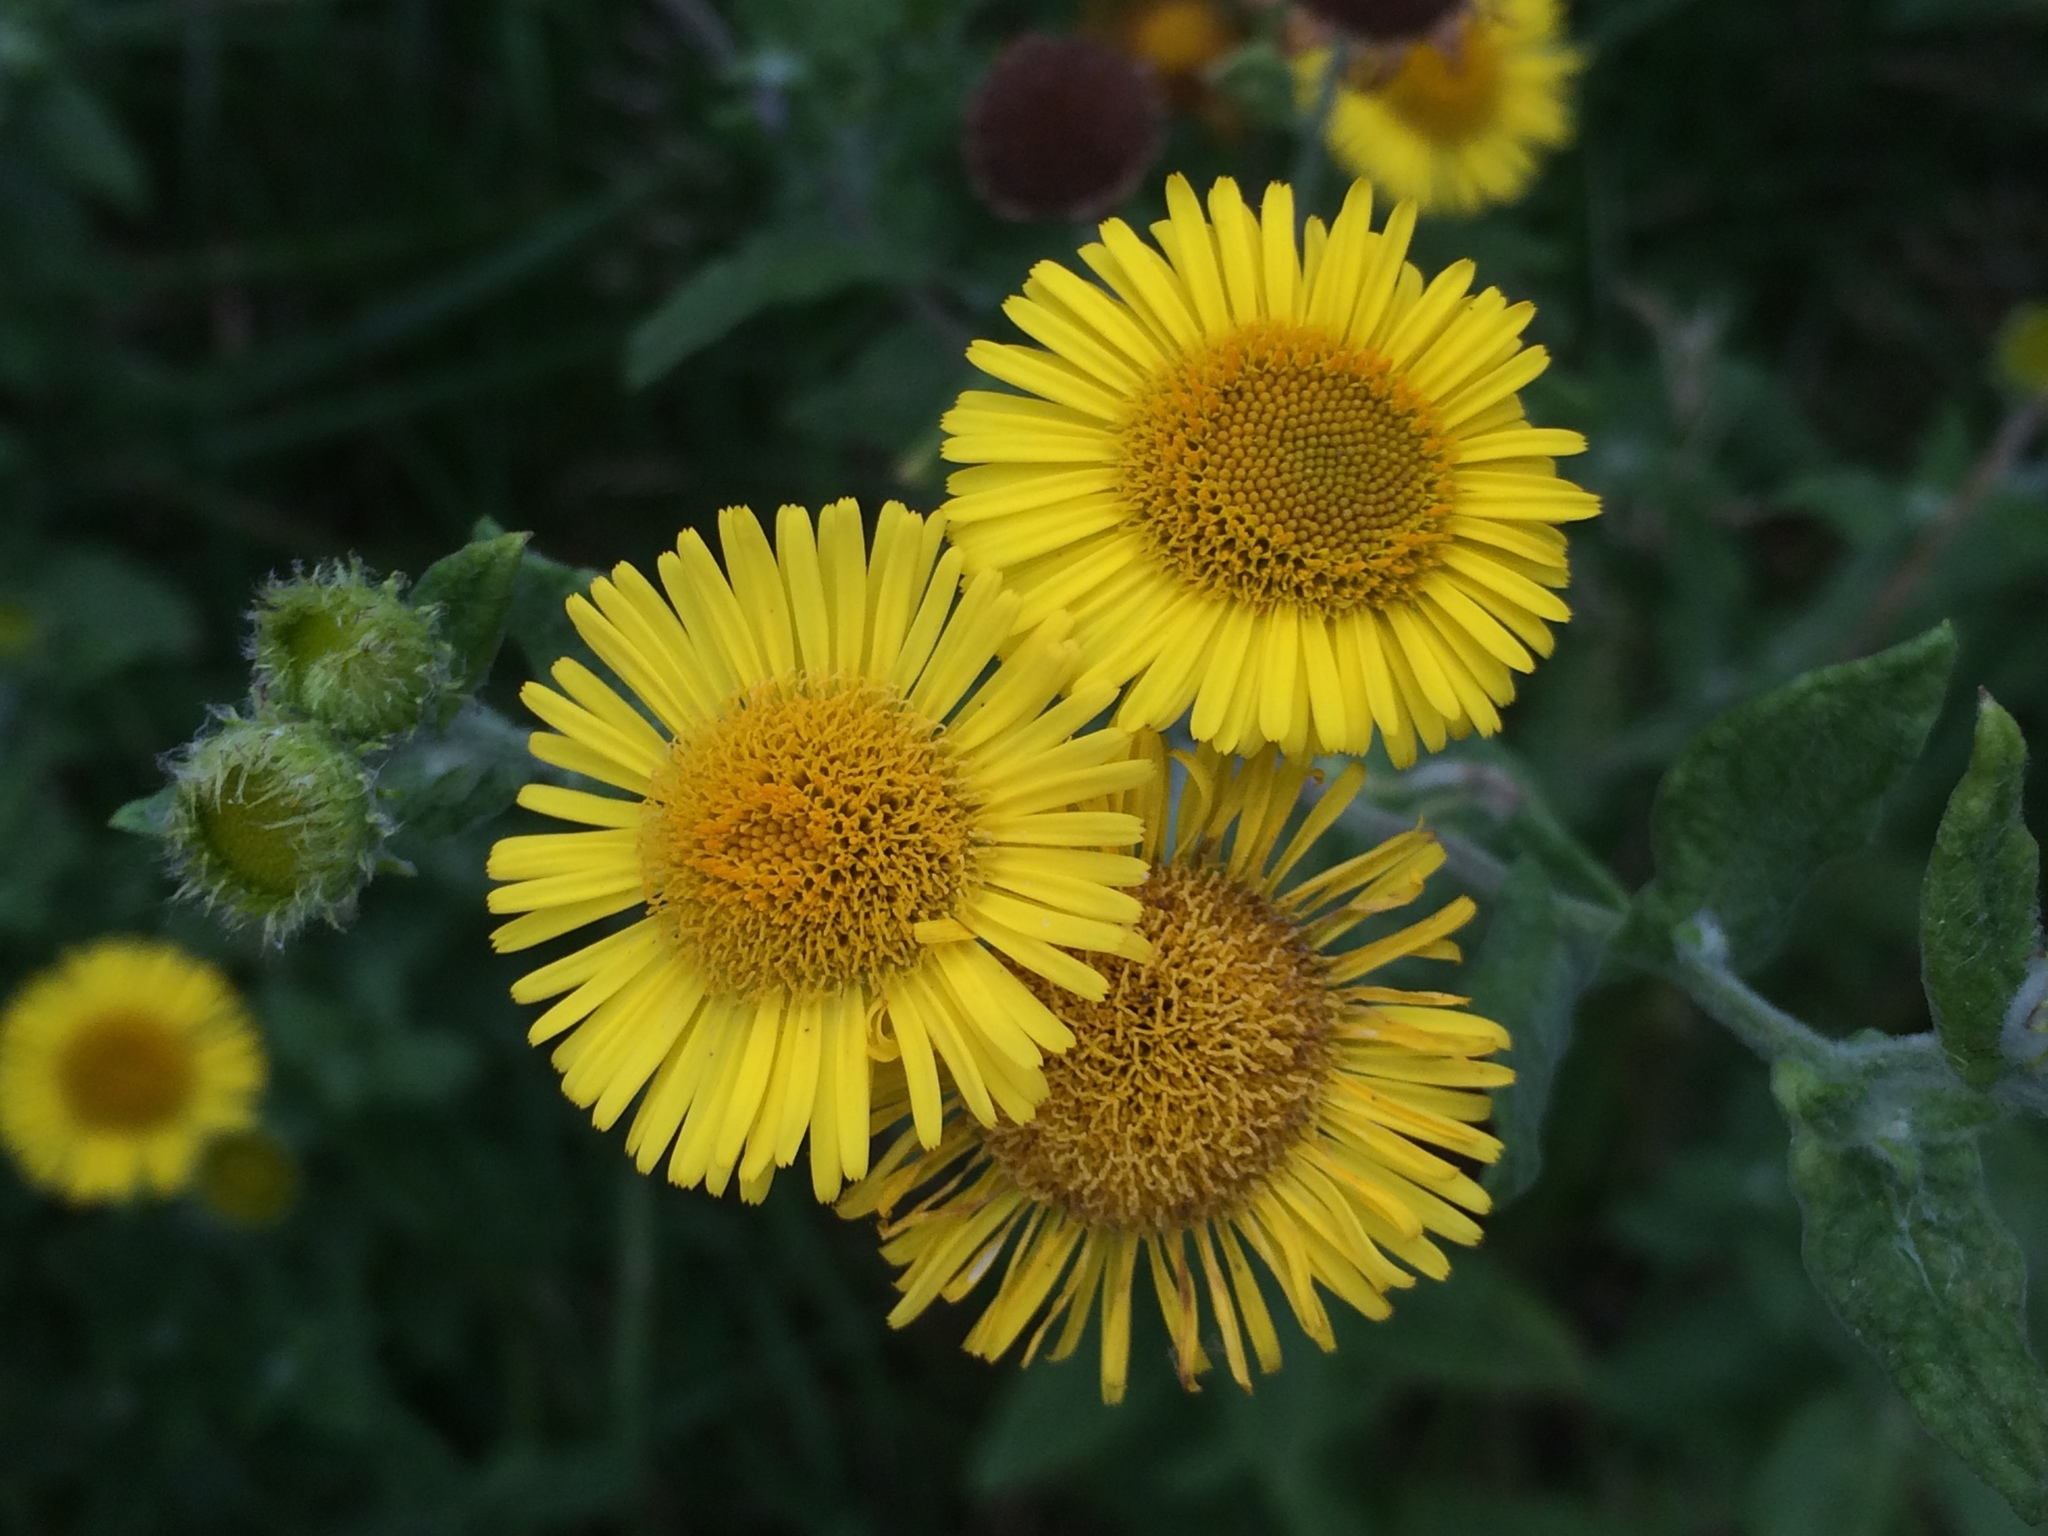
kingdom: Plantae
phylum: Tracheophyta
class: Magnoliopsida
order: Asterales
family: Asteraceae
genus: Pulicaria
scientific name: Pulicaria dysenterica
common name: Common fleabane
